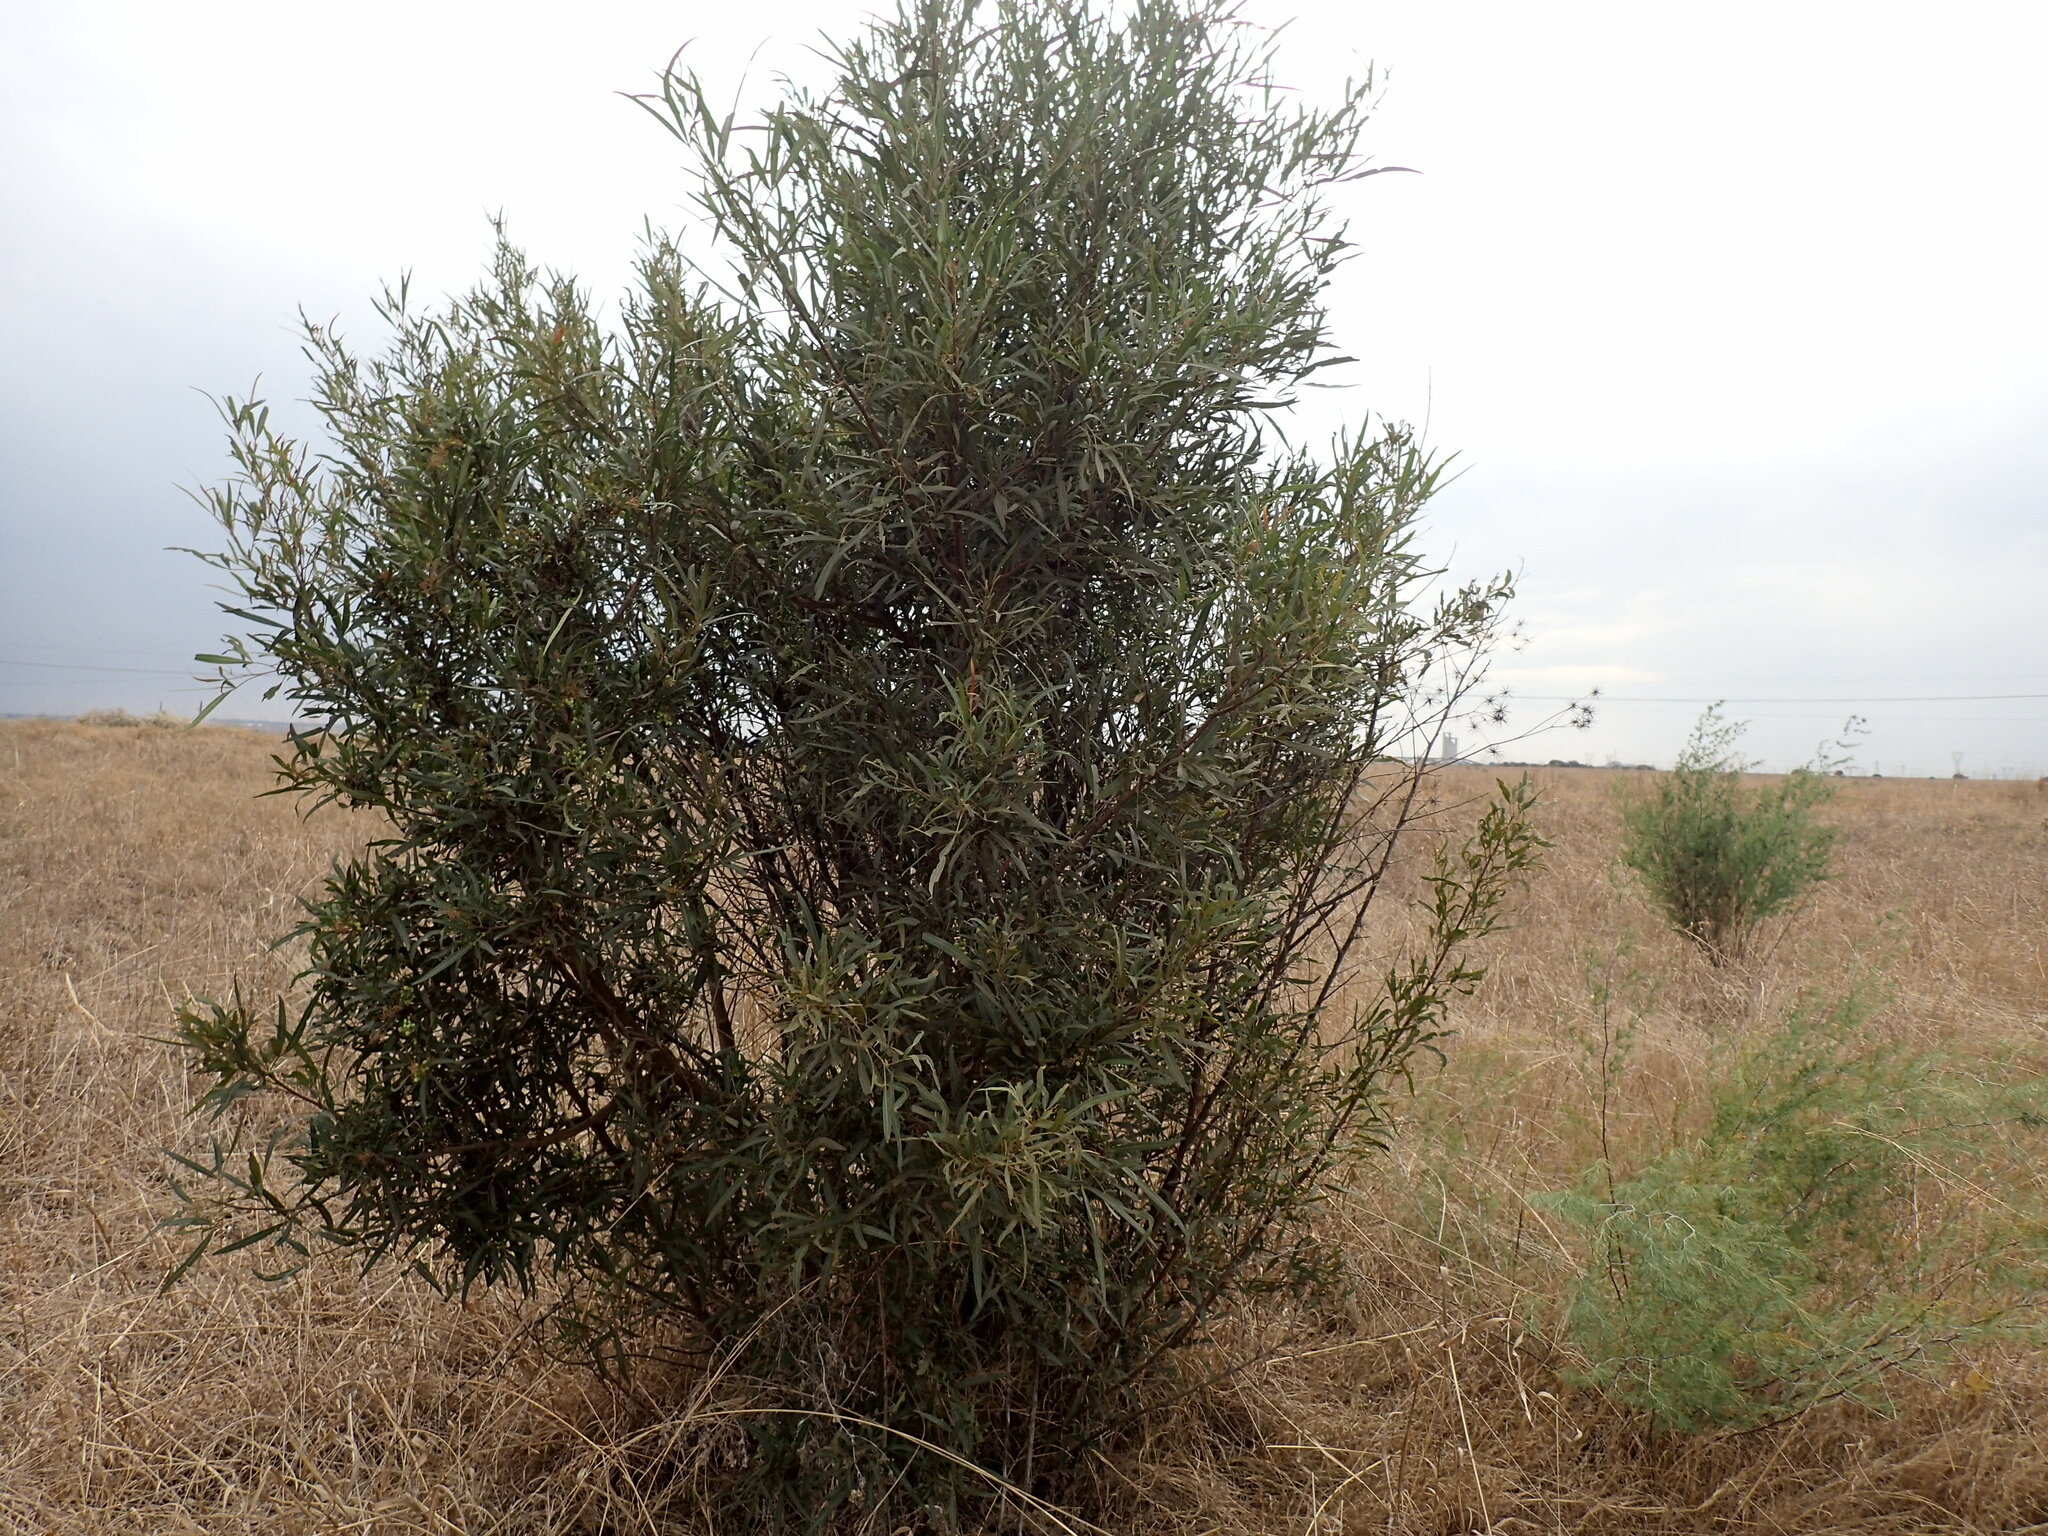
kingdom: Plantae
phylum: Tracheophyta
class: Magnoliopsida
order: Sapindales
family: Anacardiaceae
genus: Searsia
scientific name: Searsia lancea
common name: Cashew
